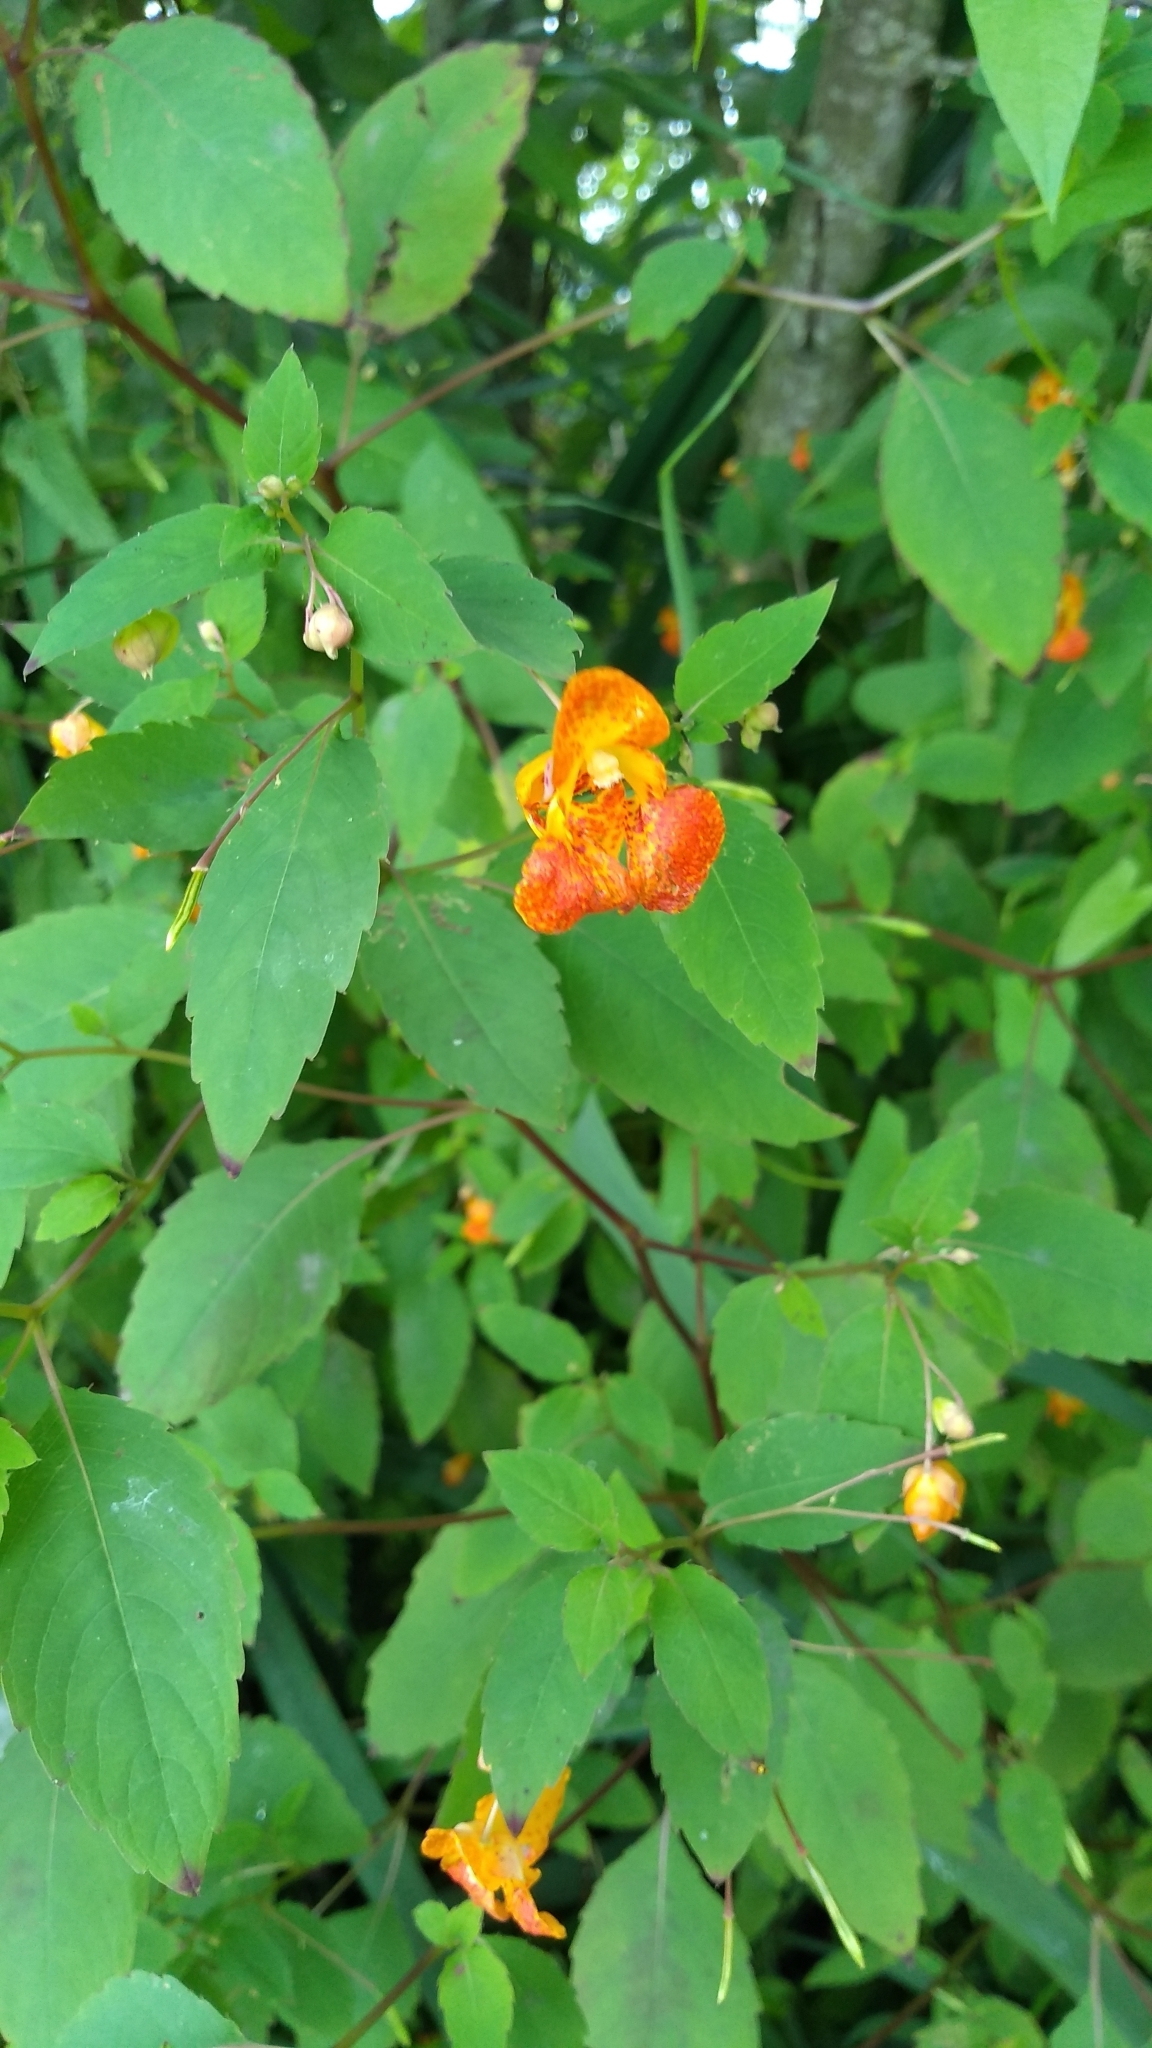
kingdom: Plantae
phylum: Tracheophyta
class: Magnoliopsida
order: Ericales
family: Balsaminaceae
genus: Impatiens
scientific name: Impatiens capensis
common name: Orange balsam
